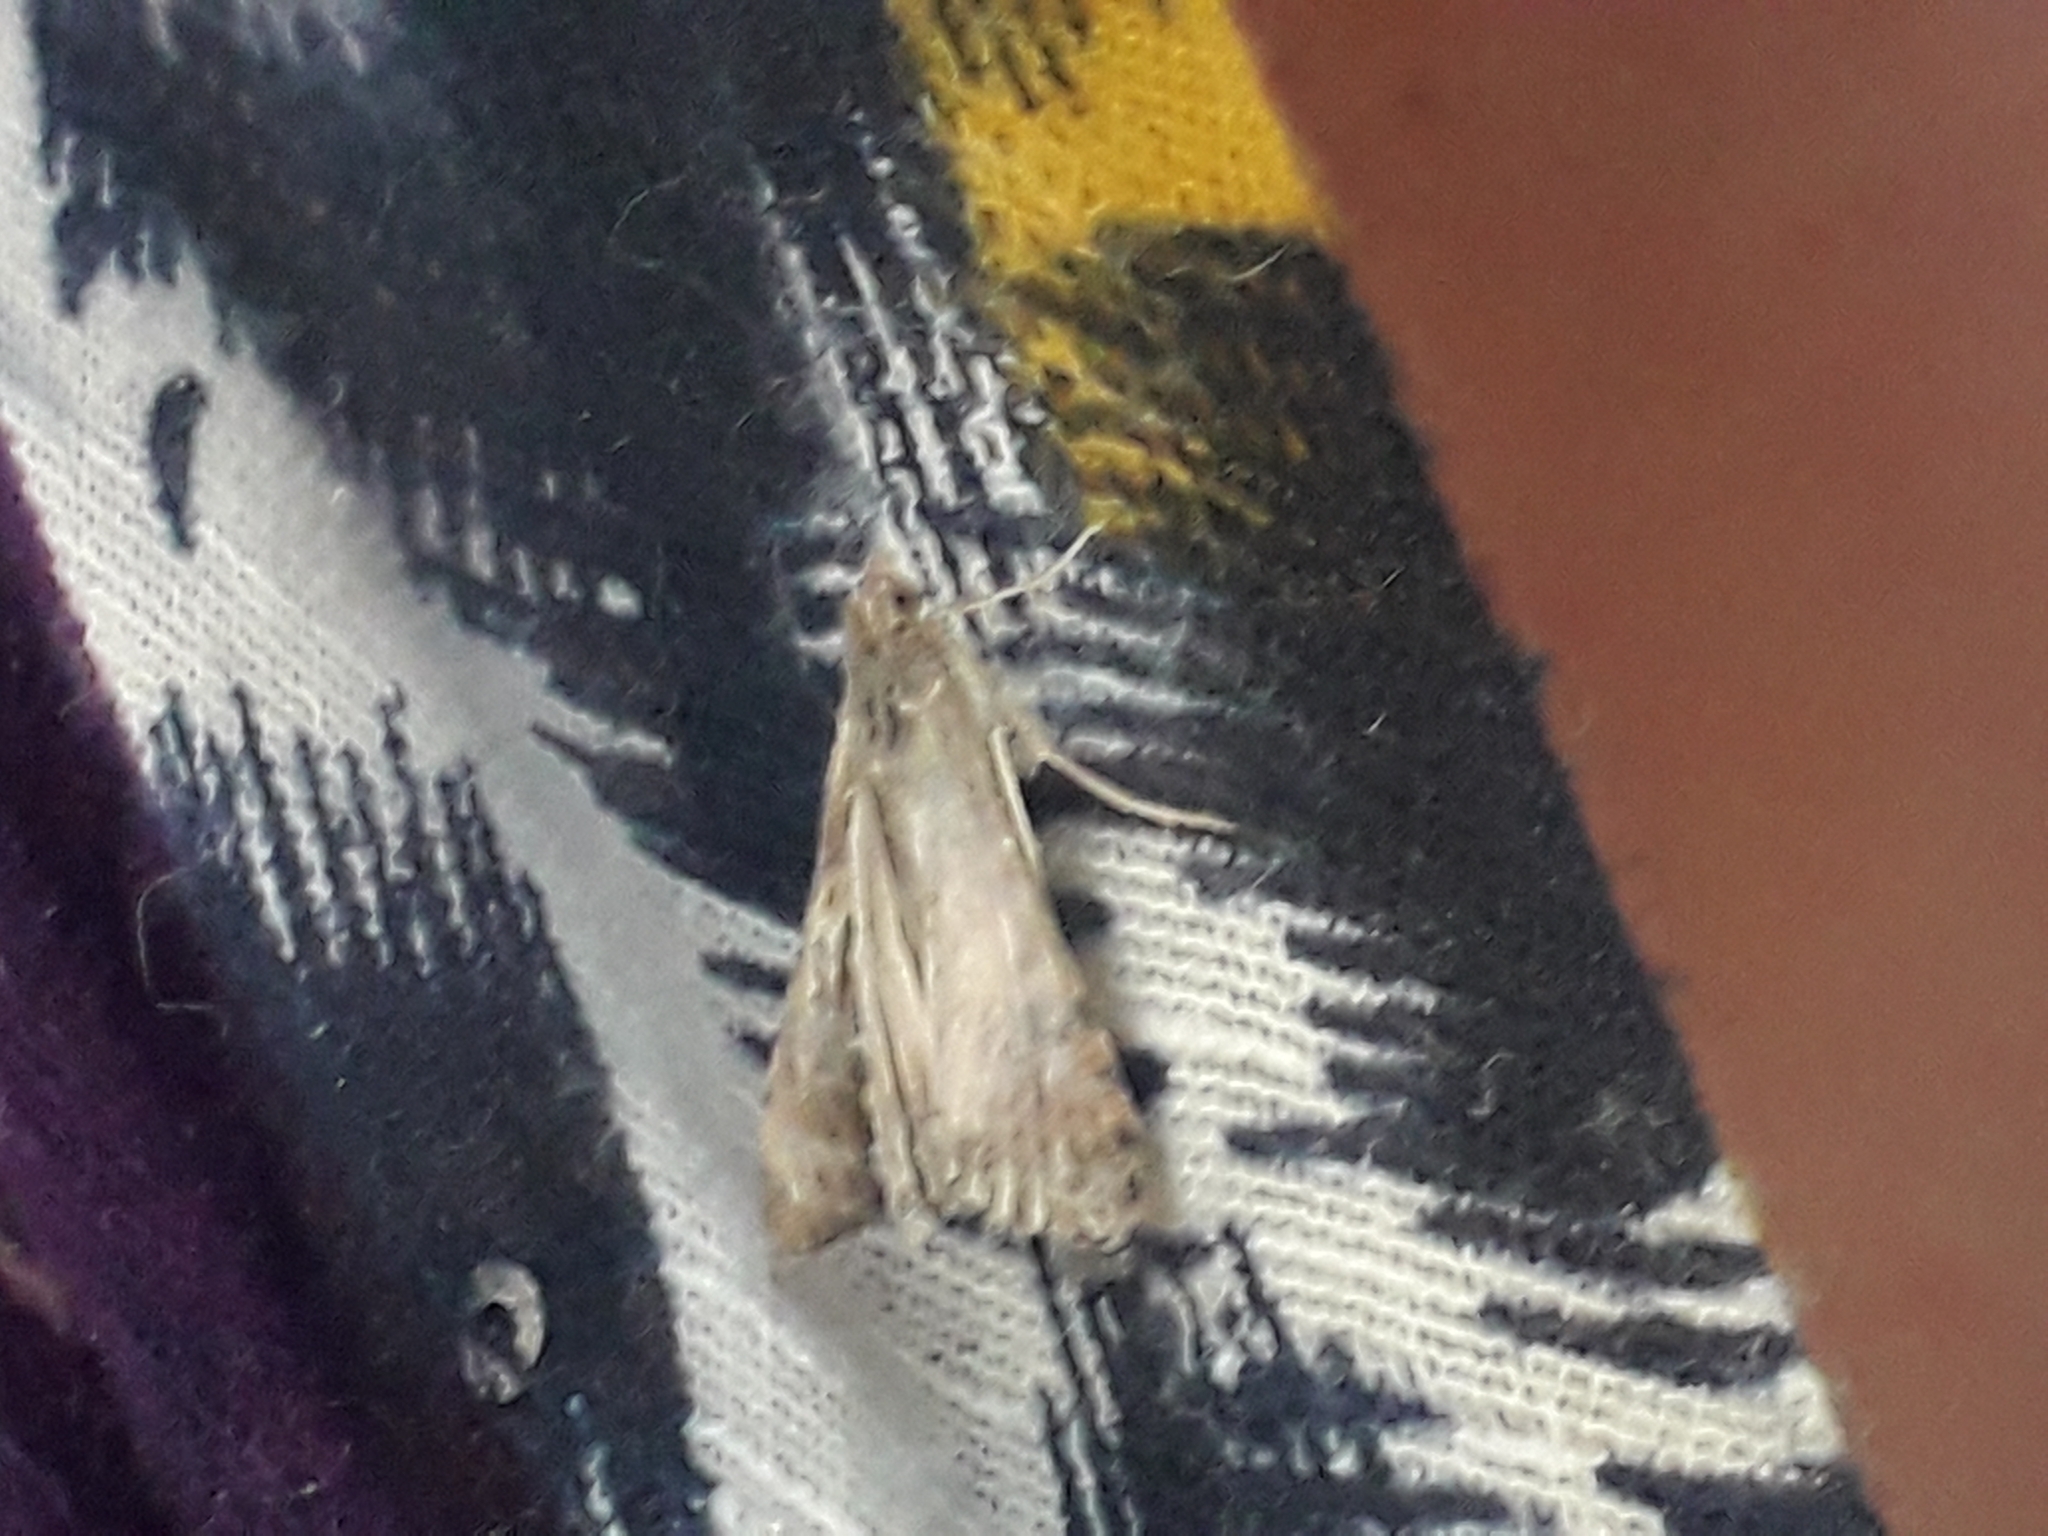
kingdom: Animalia
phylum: Arthropoda
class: Insecta
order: Lepidoptera
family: Crambidae
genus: Nomophila
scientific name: Nomophila noctuella
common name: Rush veneer
